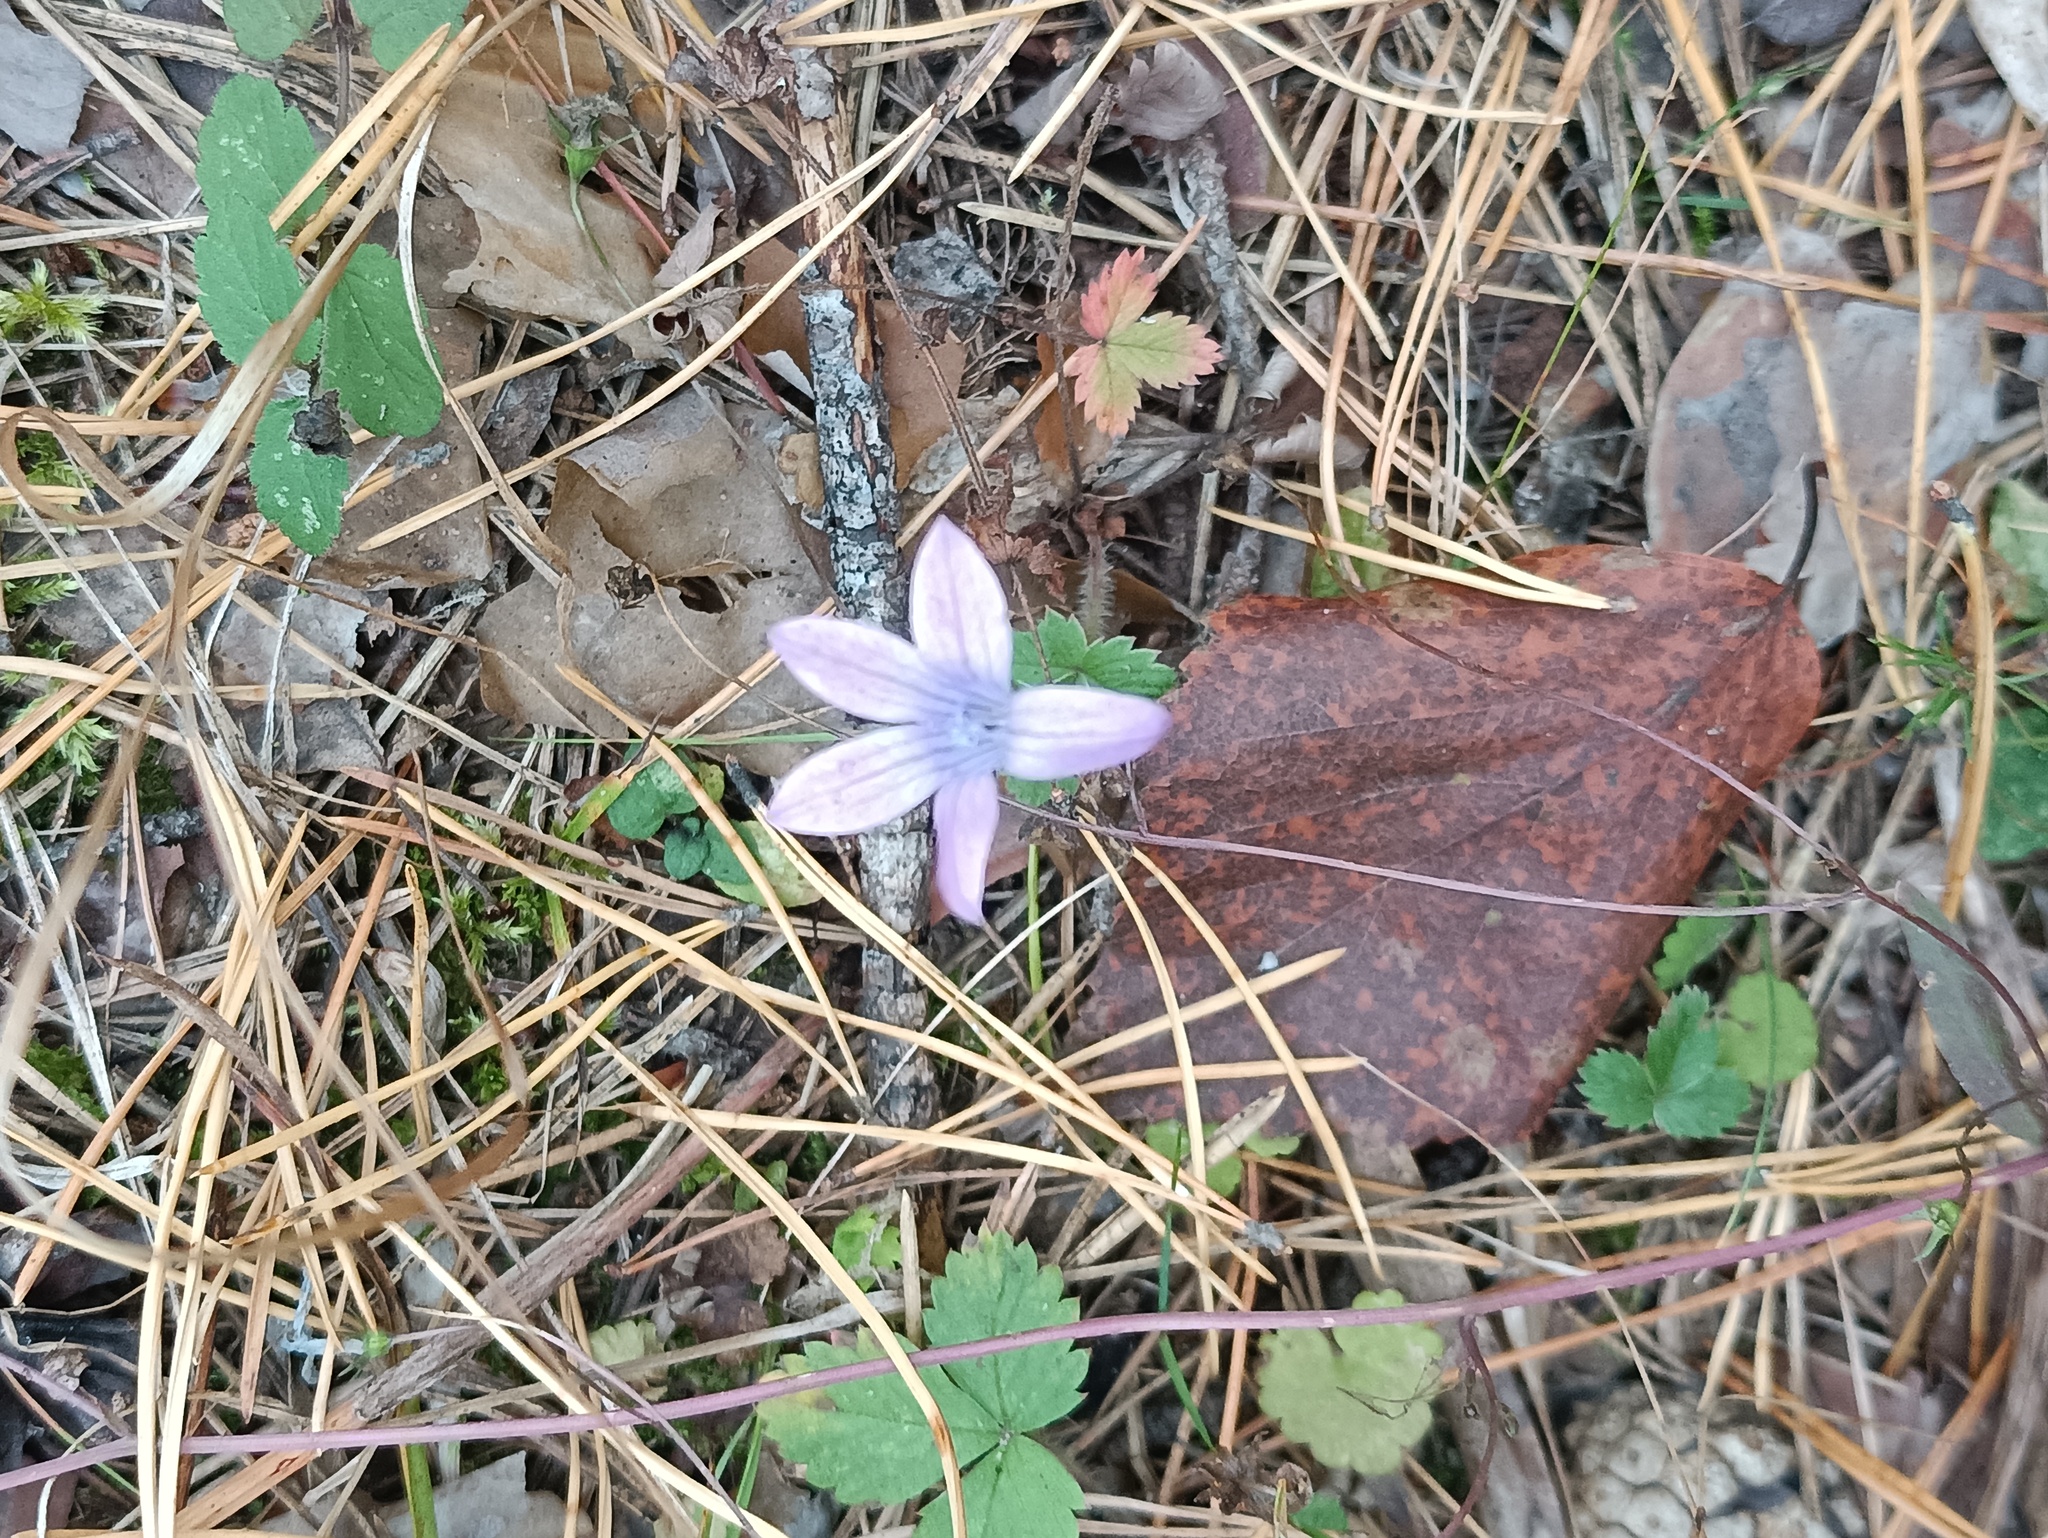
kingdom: Plantae
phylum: Tracheophyta
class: Magnoliopsida
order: Asterales
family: Campanulaceae
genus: Campanula
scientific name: Campanula patula
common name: Spreading bellflower
